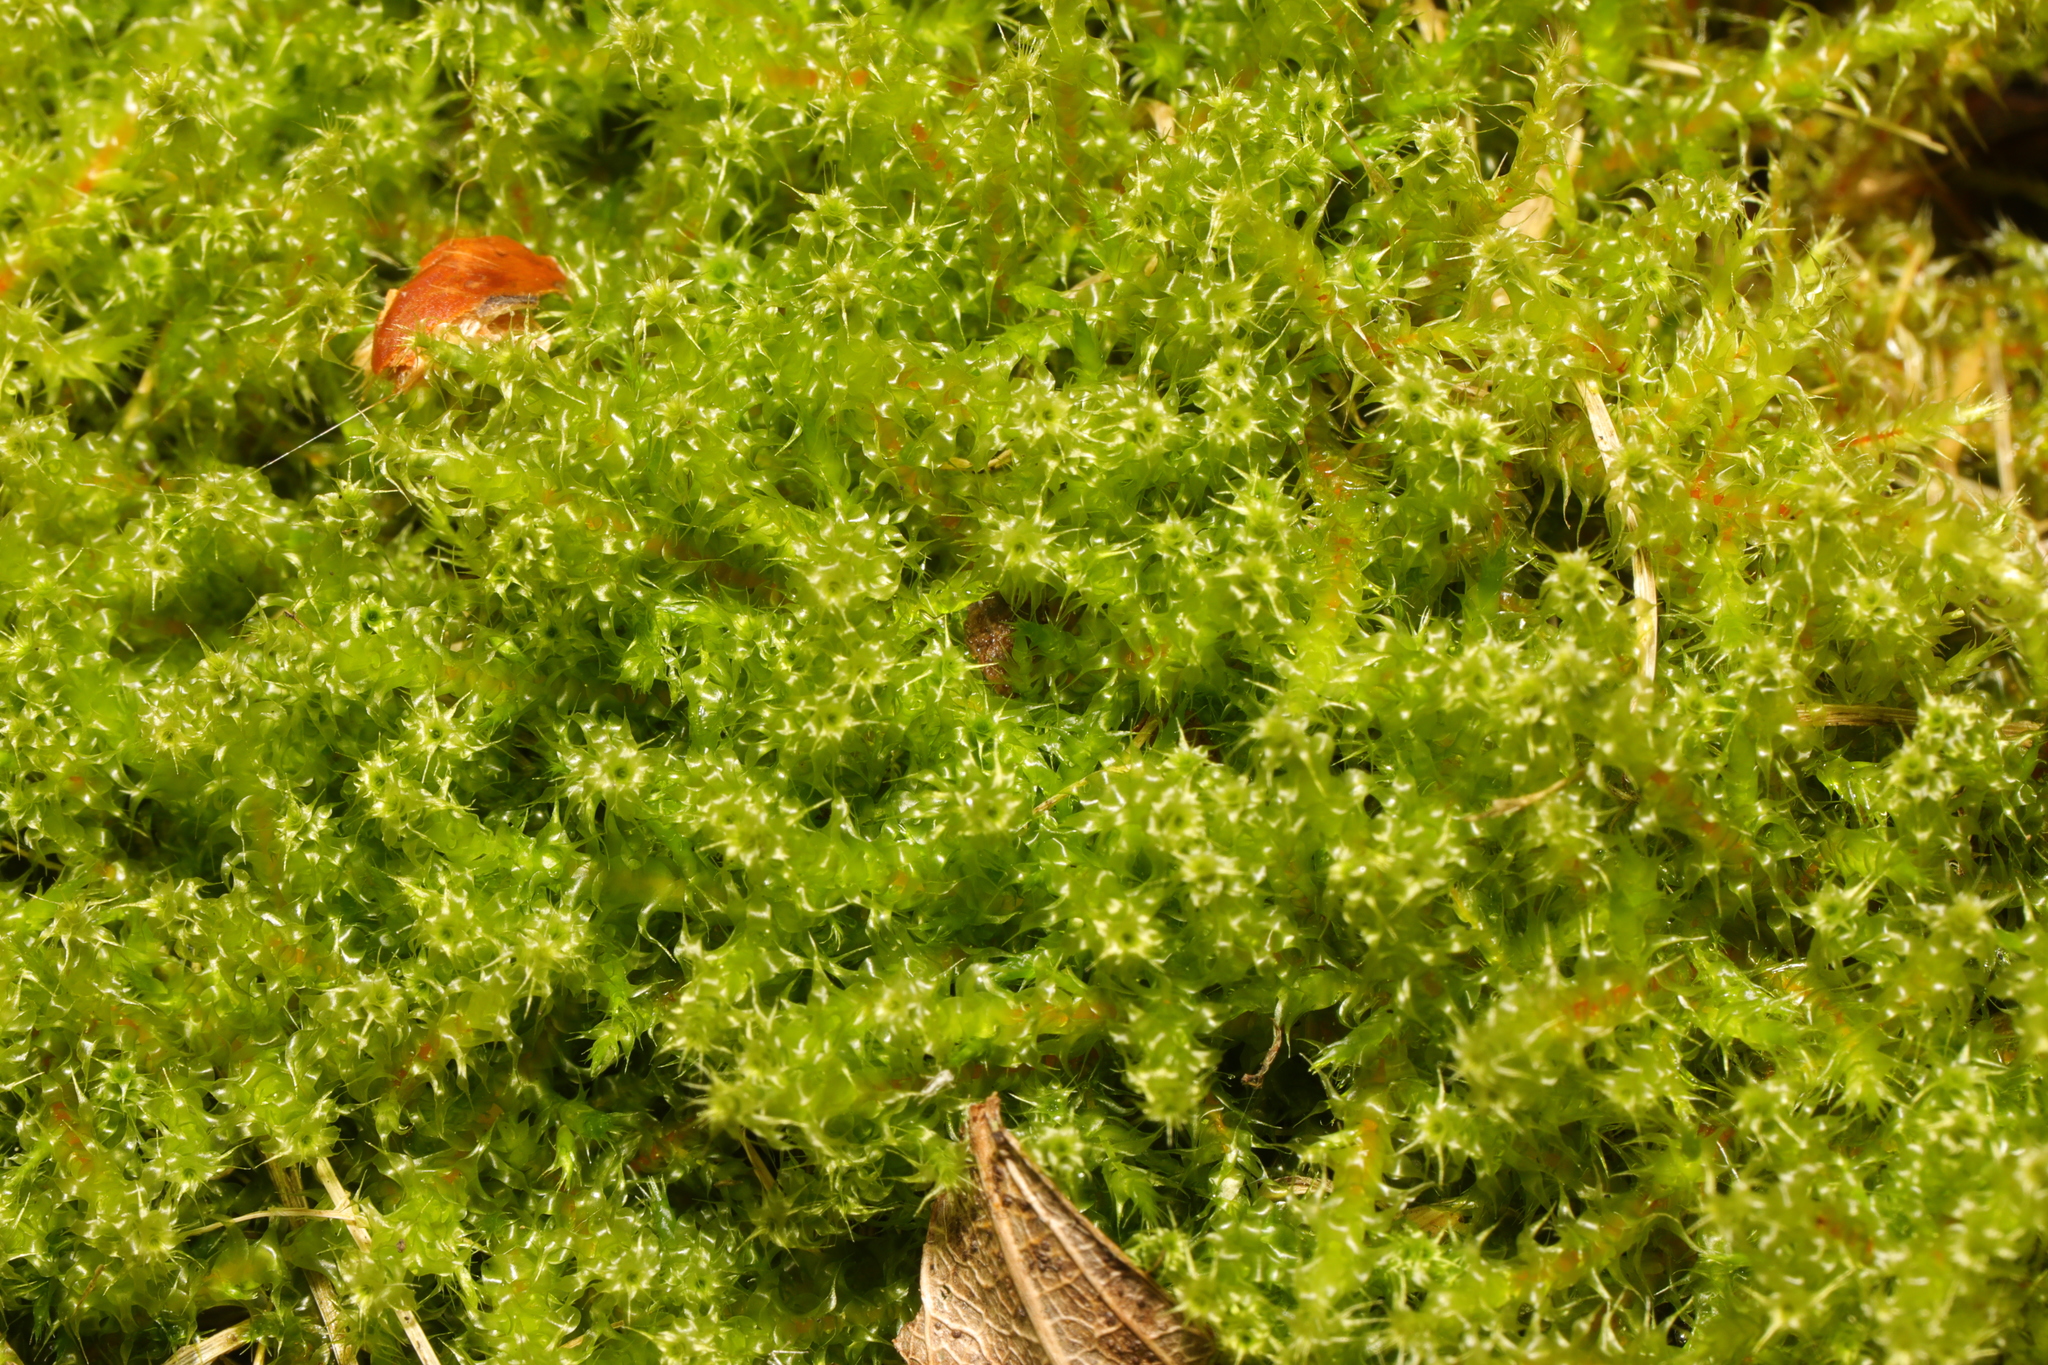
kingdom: Plantae
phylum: Bryophyta
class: Bryopsida
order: Hypnales
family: Hylocomiaceae
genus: Rhytidiadelphus
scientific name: Rhytidiadelphus squarrosus
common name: Springy turf-moss
